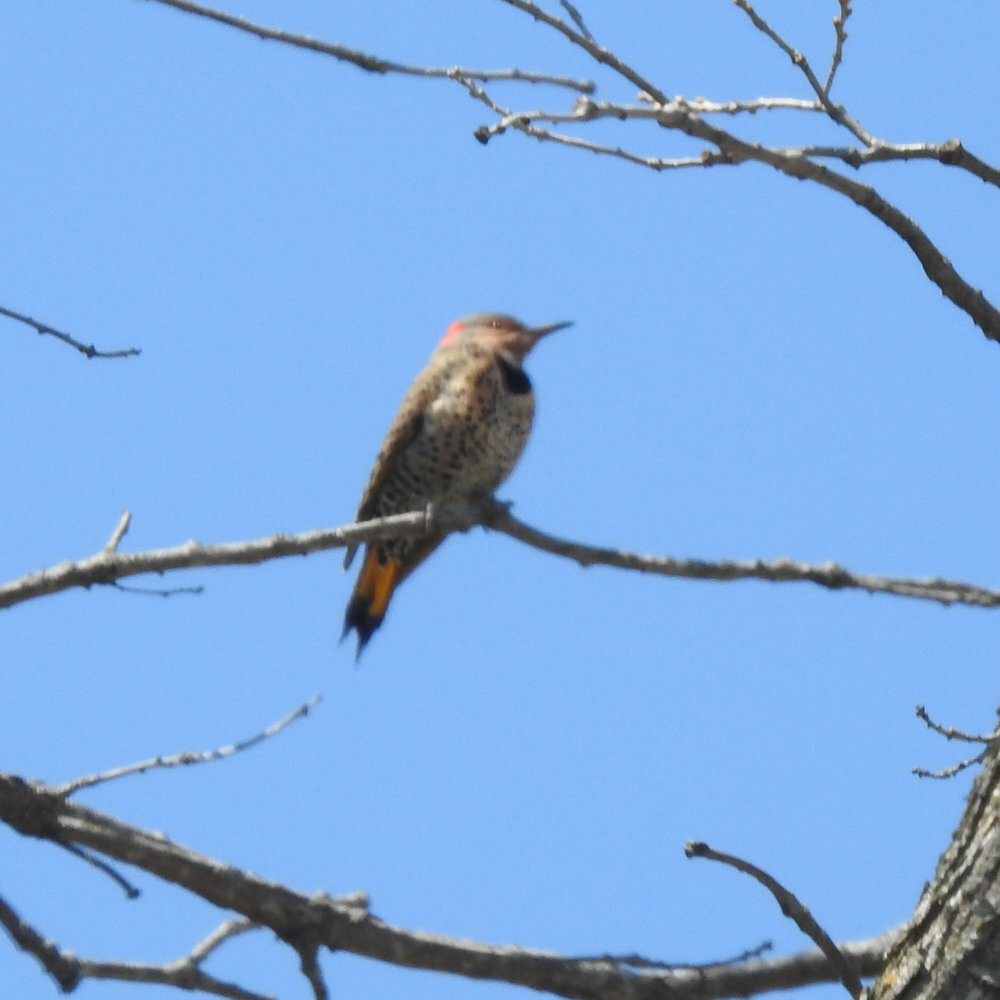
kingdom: Animalia
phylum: Chordata
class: Aves
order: Piciformes
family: Picidae
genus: Colaptes
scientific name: Colaptes auratus
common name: Northern flicker
